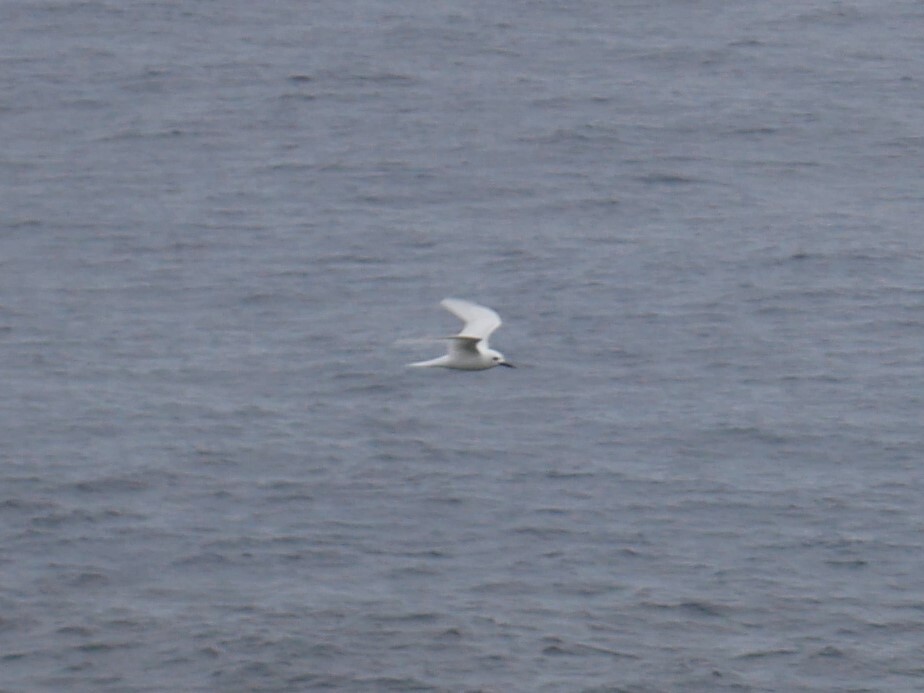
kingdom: Animalia
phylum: Chordata
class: Aves
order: Charadriiformes
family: Laridae
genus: Gygis
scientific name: Gygis alba
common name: White tern
